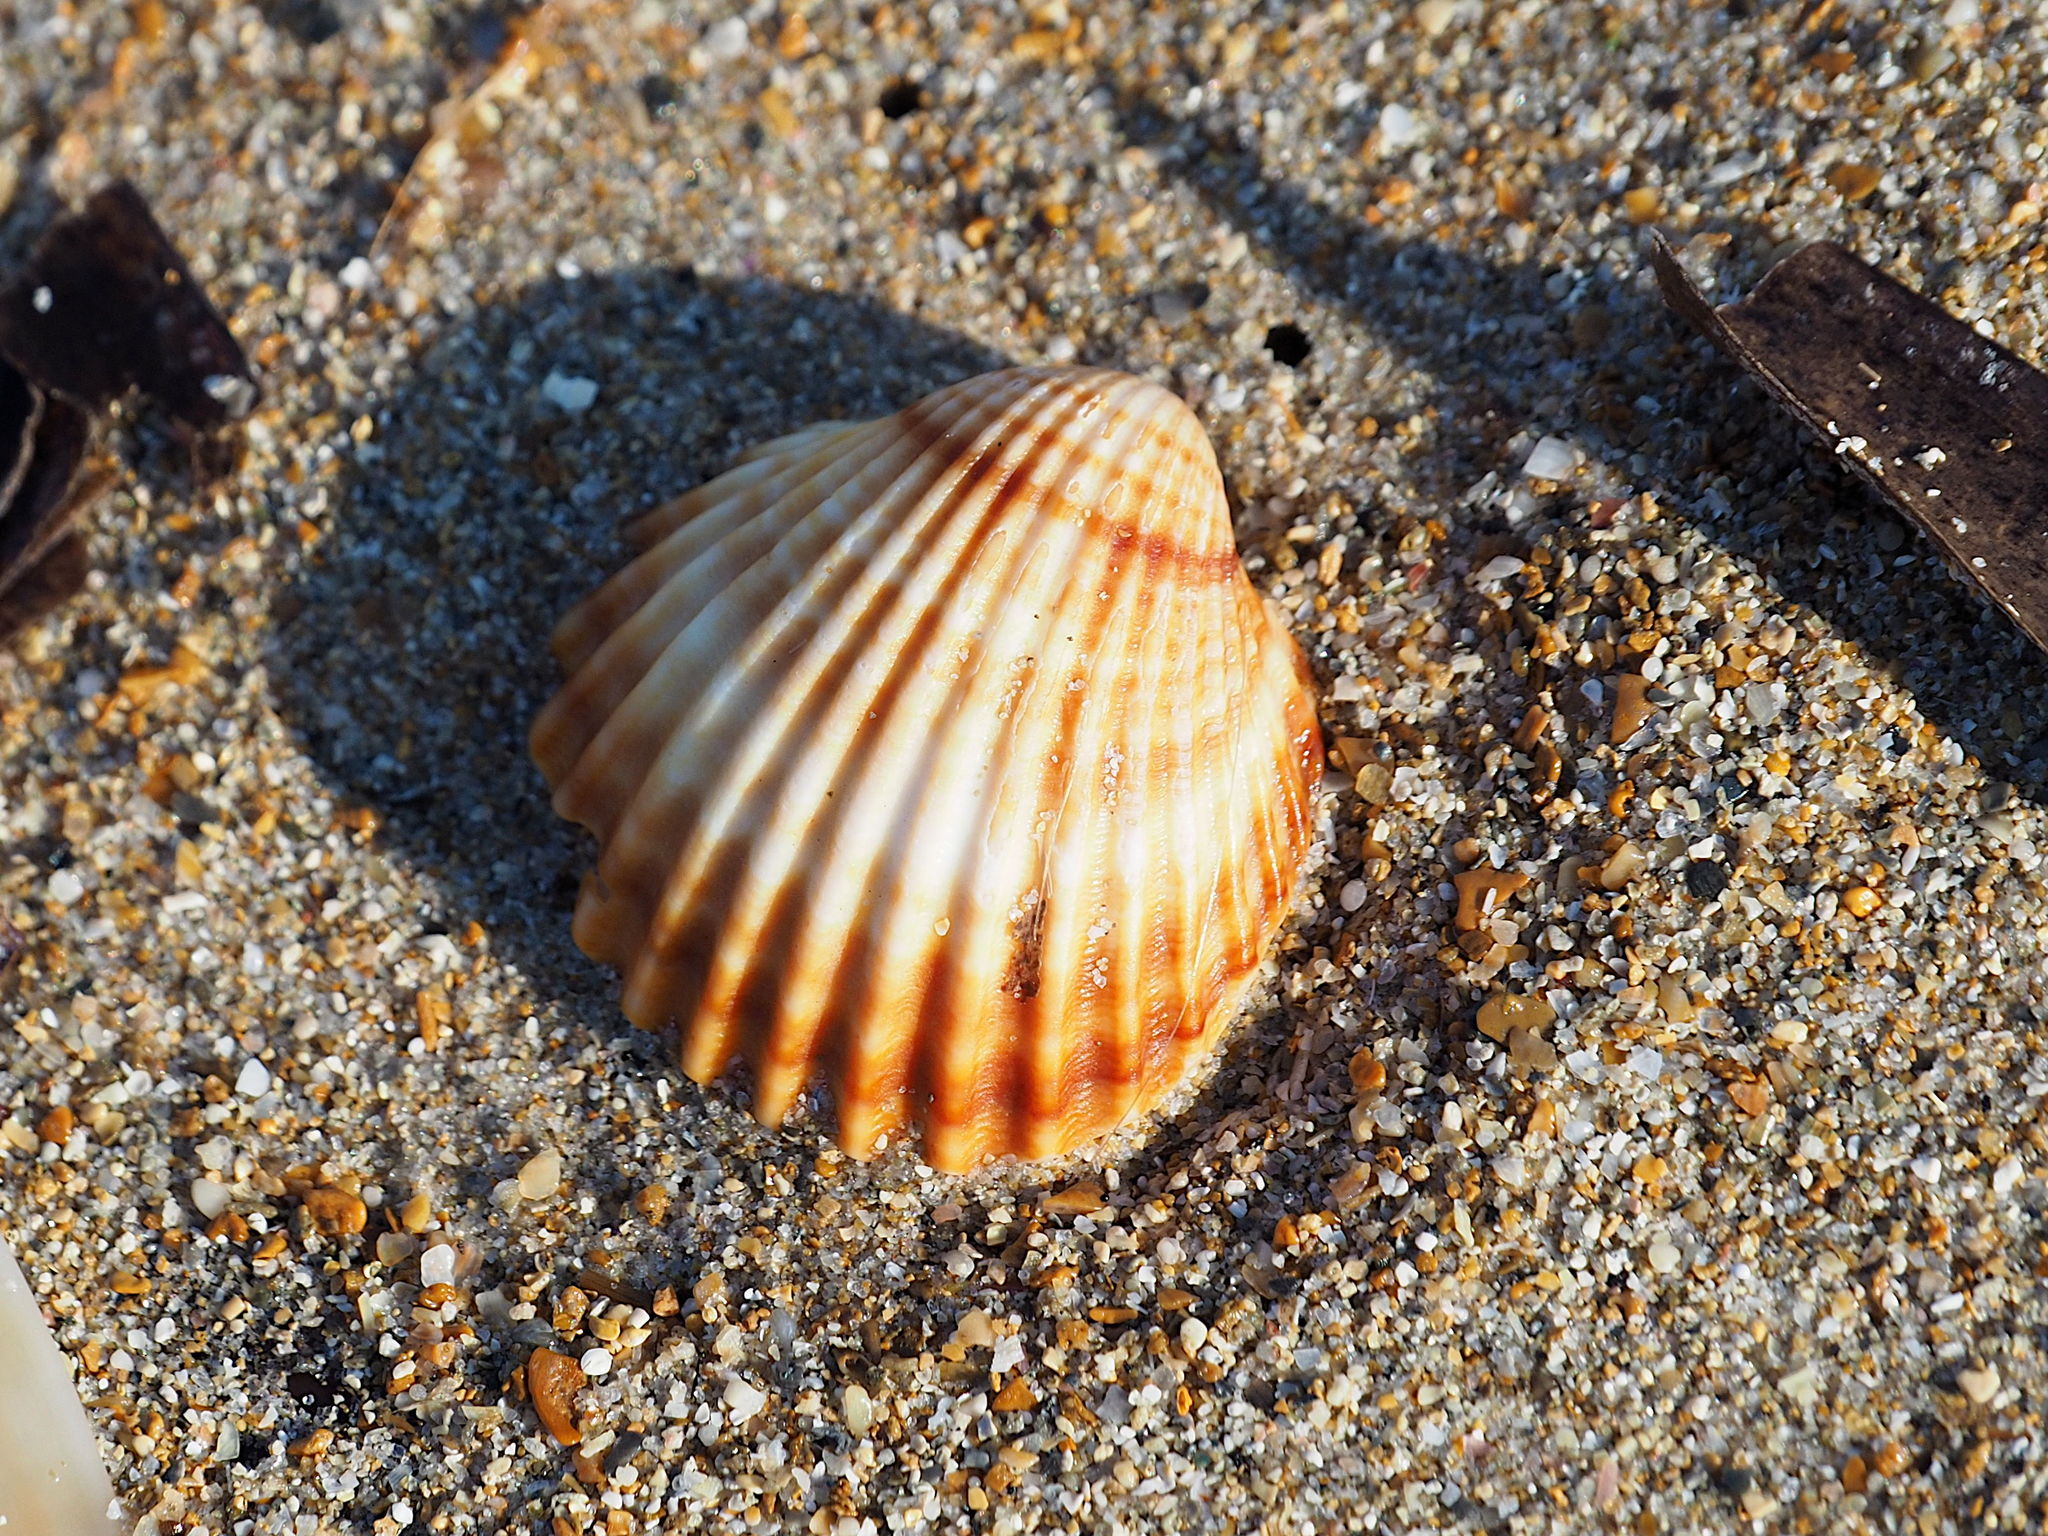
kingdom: Animalia
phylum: Mollusca
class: Bivalvia
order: Cardiida
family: Cardiidae
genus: Acanthocardia
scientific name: Acanthocardia tuberculata
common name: Rough cockle
